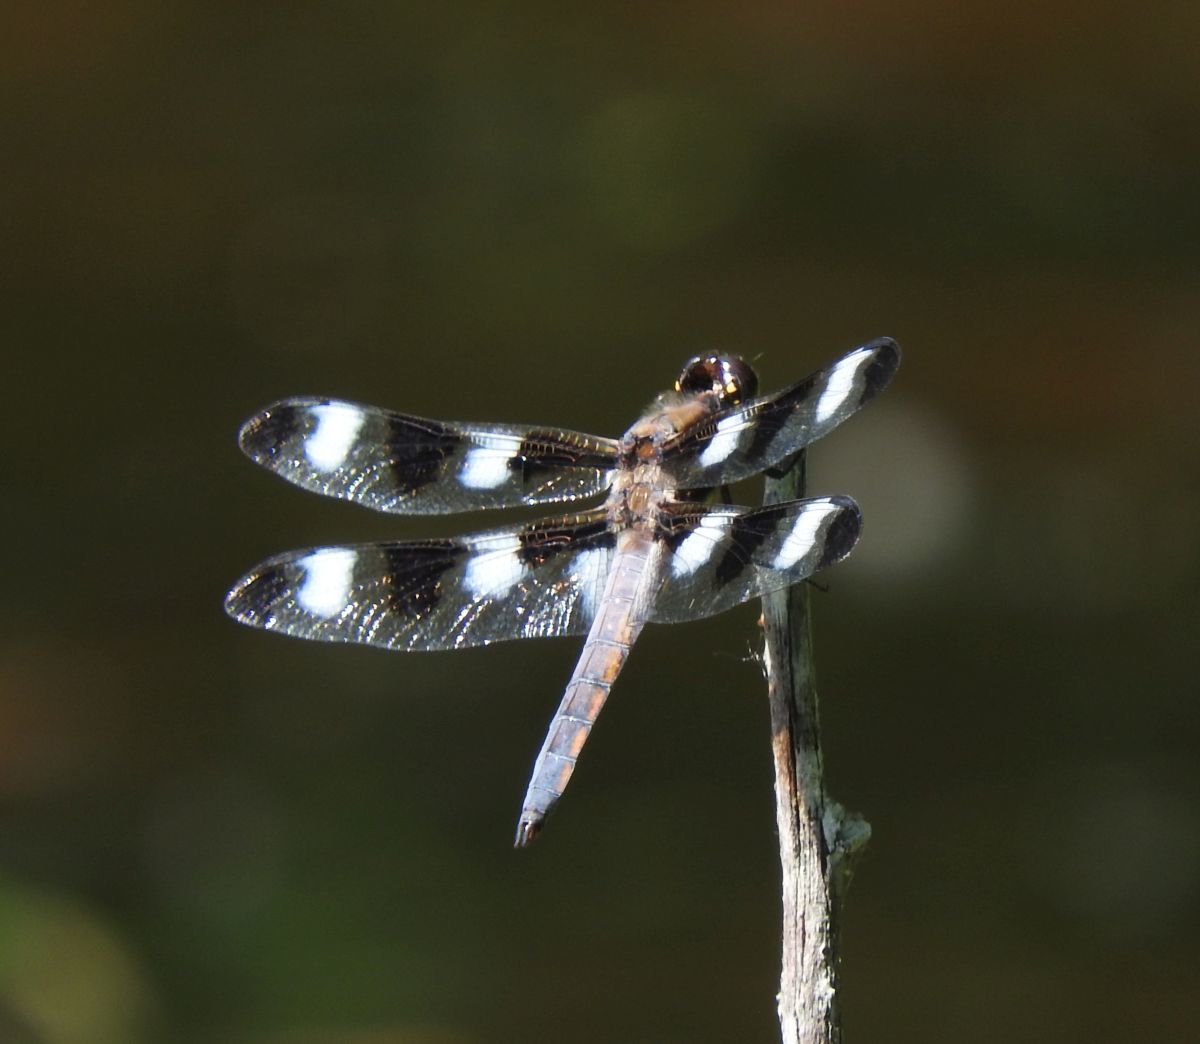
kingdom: Animalia
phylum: Arthropoda
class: Insecta
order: Odonata
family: Libellulidae
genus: Libellula
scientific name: Libellula pulchella
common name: Twelve-spotted skimmer
